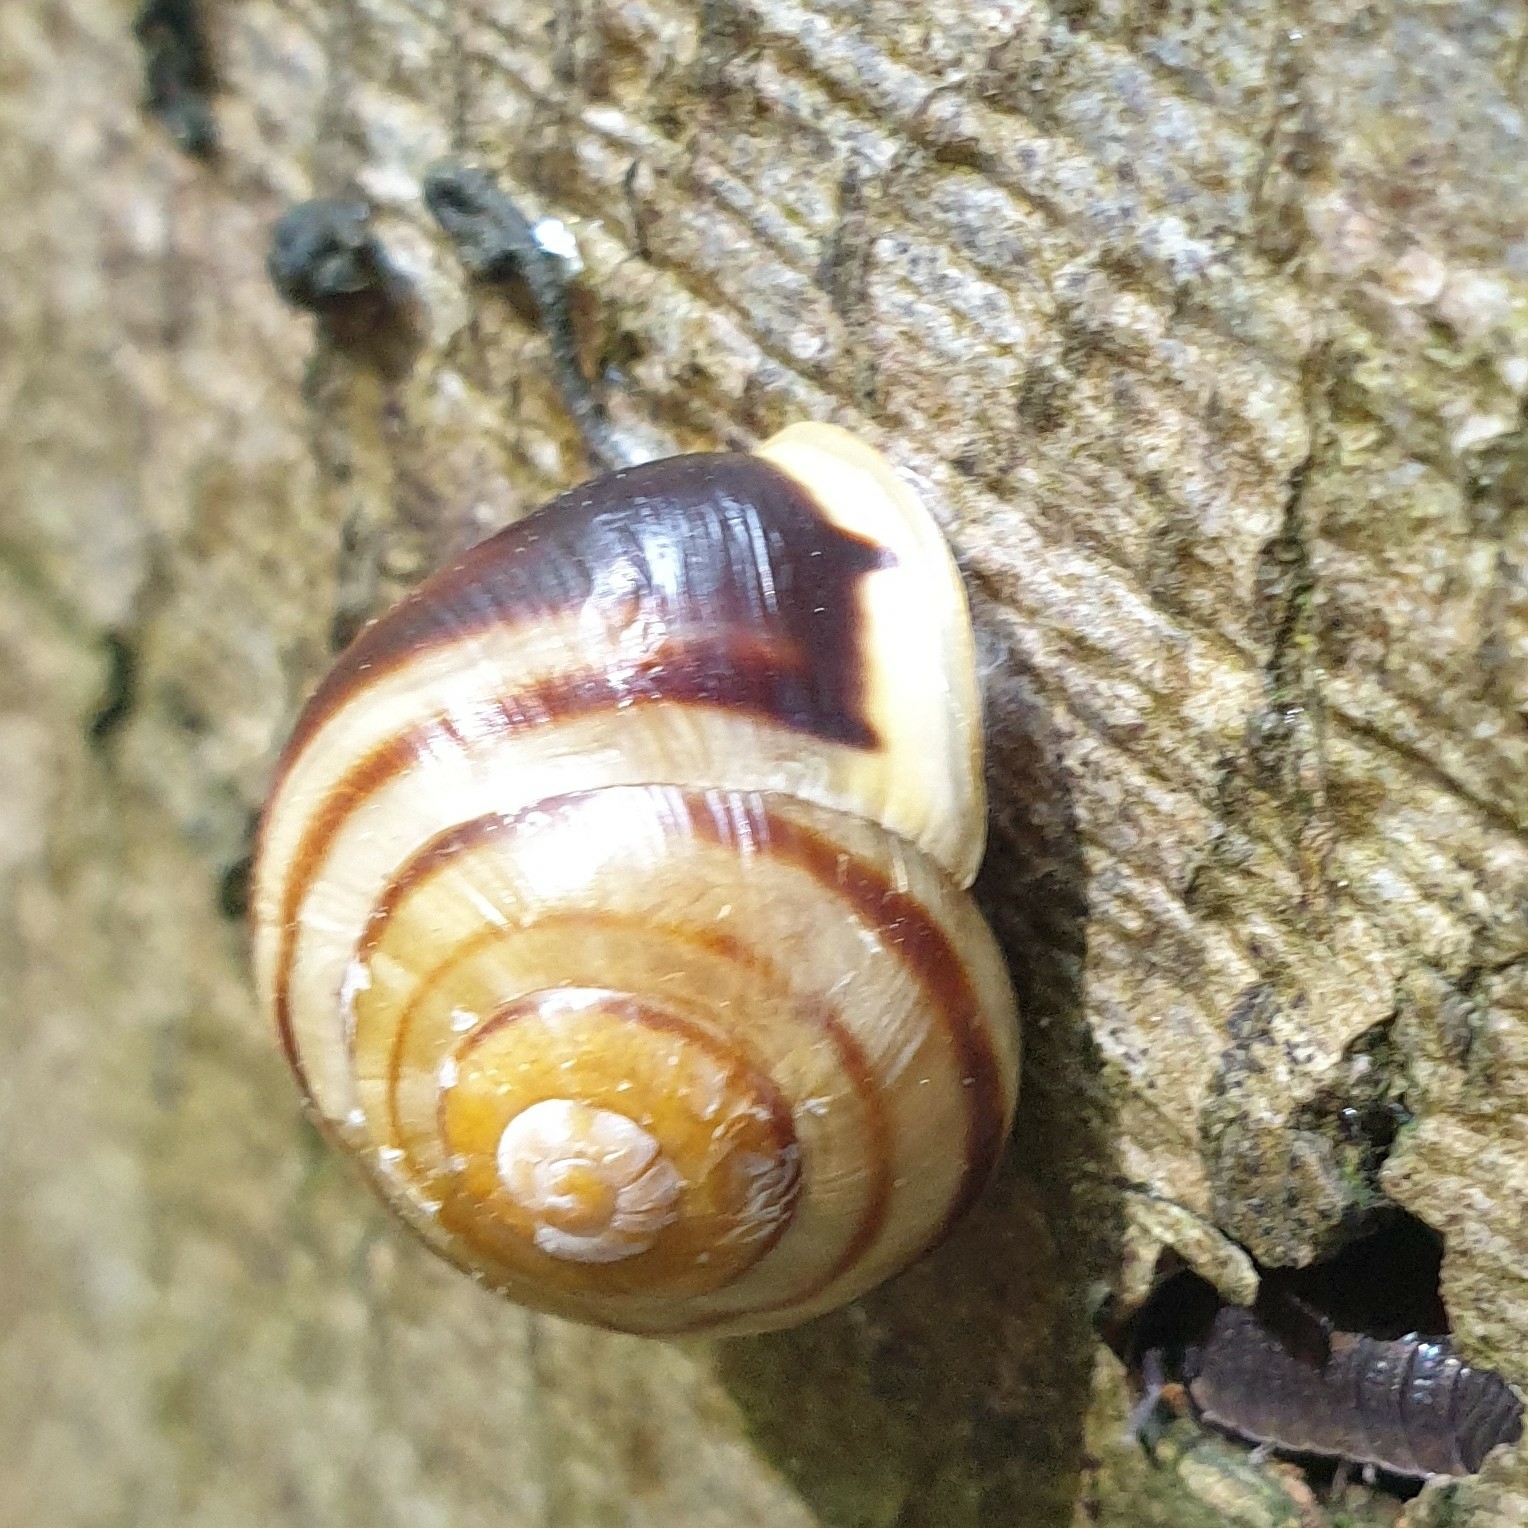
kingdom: Animalia
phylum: Mollusca
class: Gastropoda
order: Stylommatophora
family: Helicidae
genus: Cepaea
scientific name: Cepaea hortensis
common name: White-lip gardensnail
